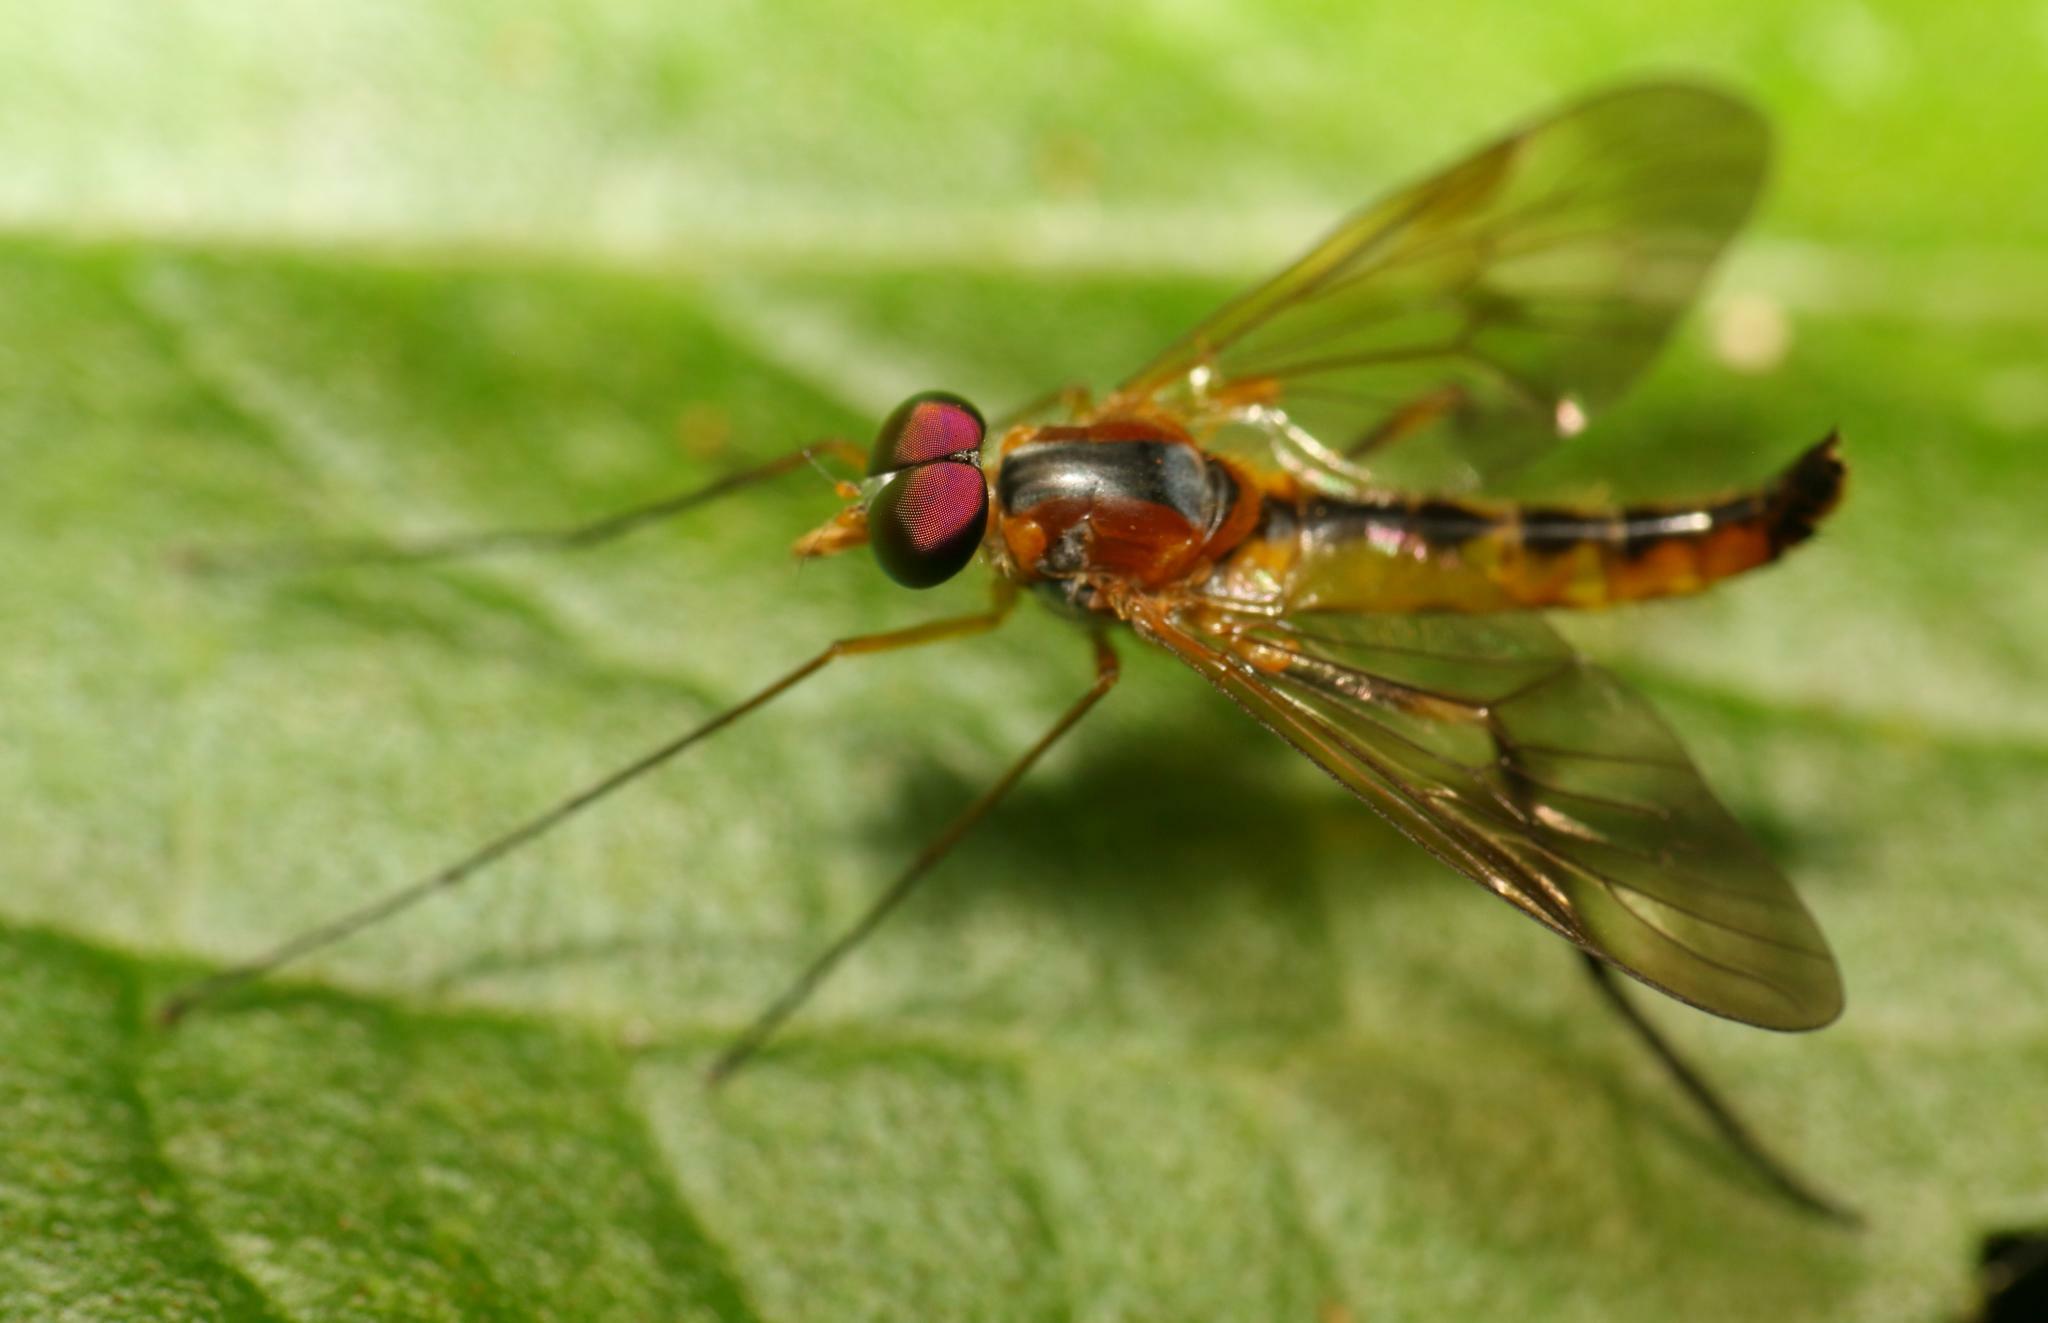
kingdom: Animalia
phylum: Arthropoda
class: Insecta
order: Diptera
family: Athericidae
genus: Suragina
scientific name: Suragina bivittata
